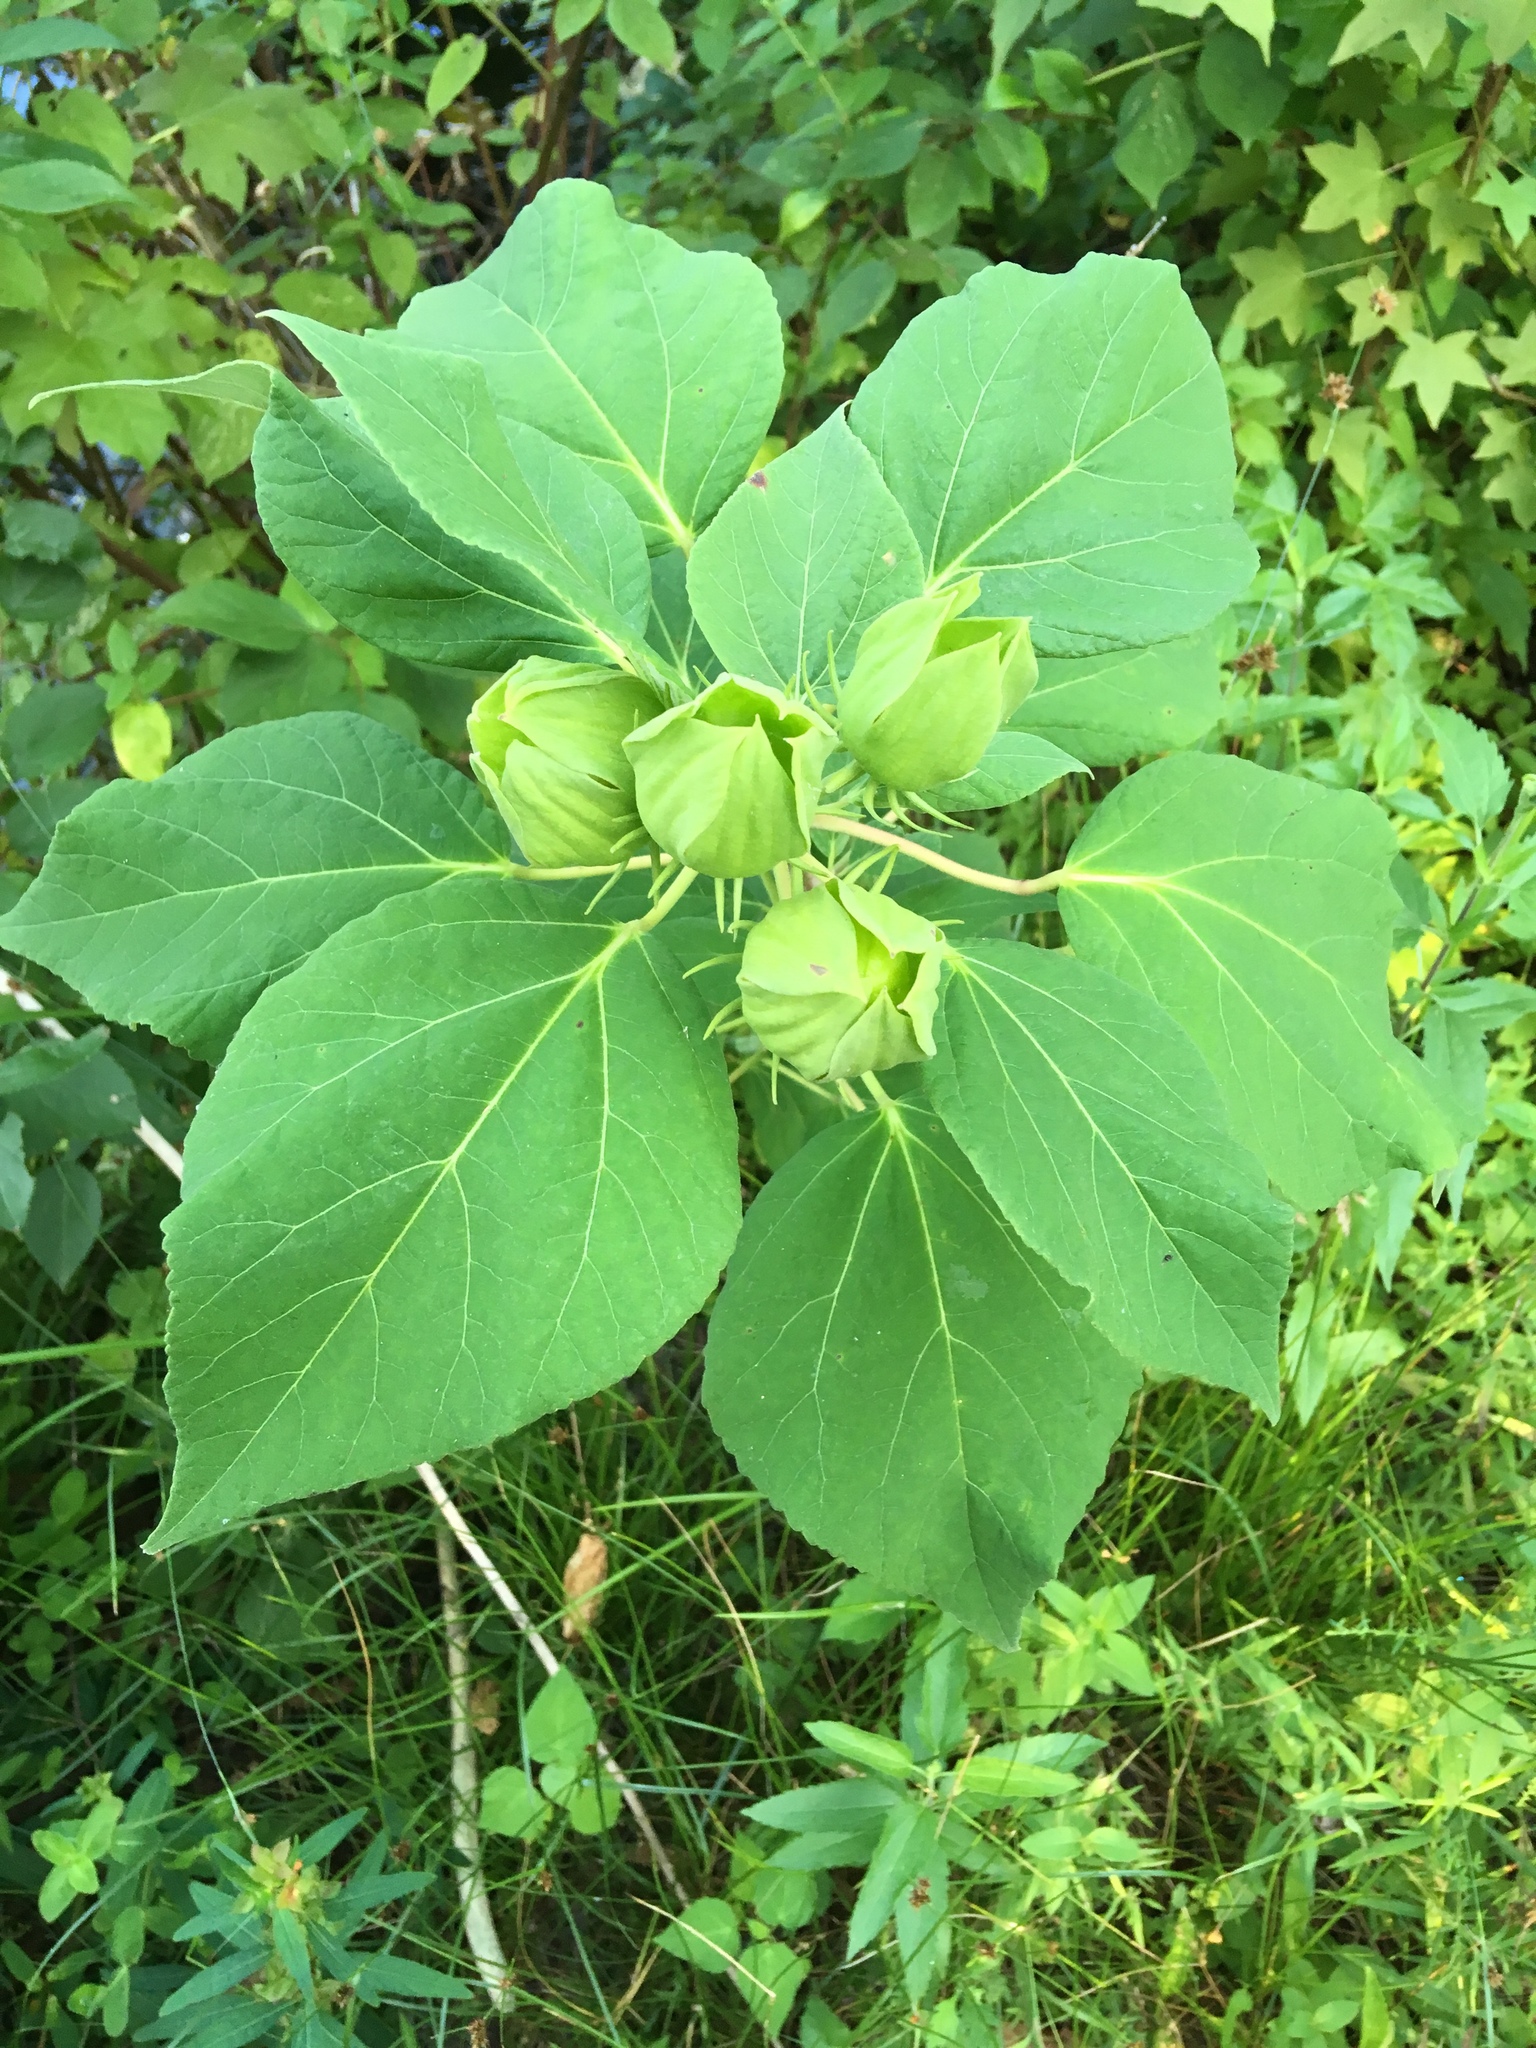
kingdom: Plantae
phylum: Tracheophyta
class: Magnoliopsida
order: Malvales
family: Malvaceae
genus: Hibiscus
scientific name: Hibiscus moscheutos
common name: Common rose-mallow
